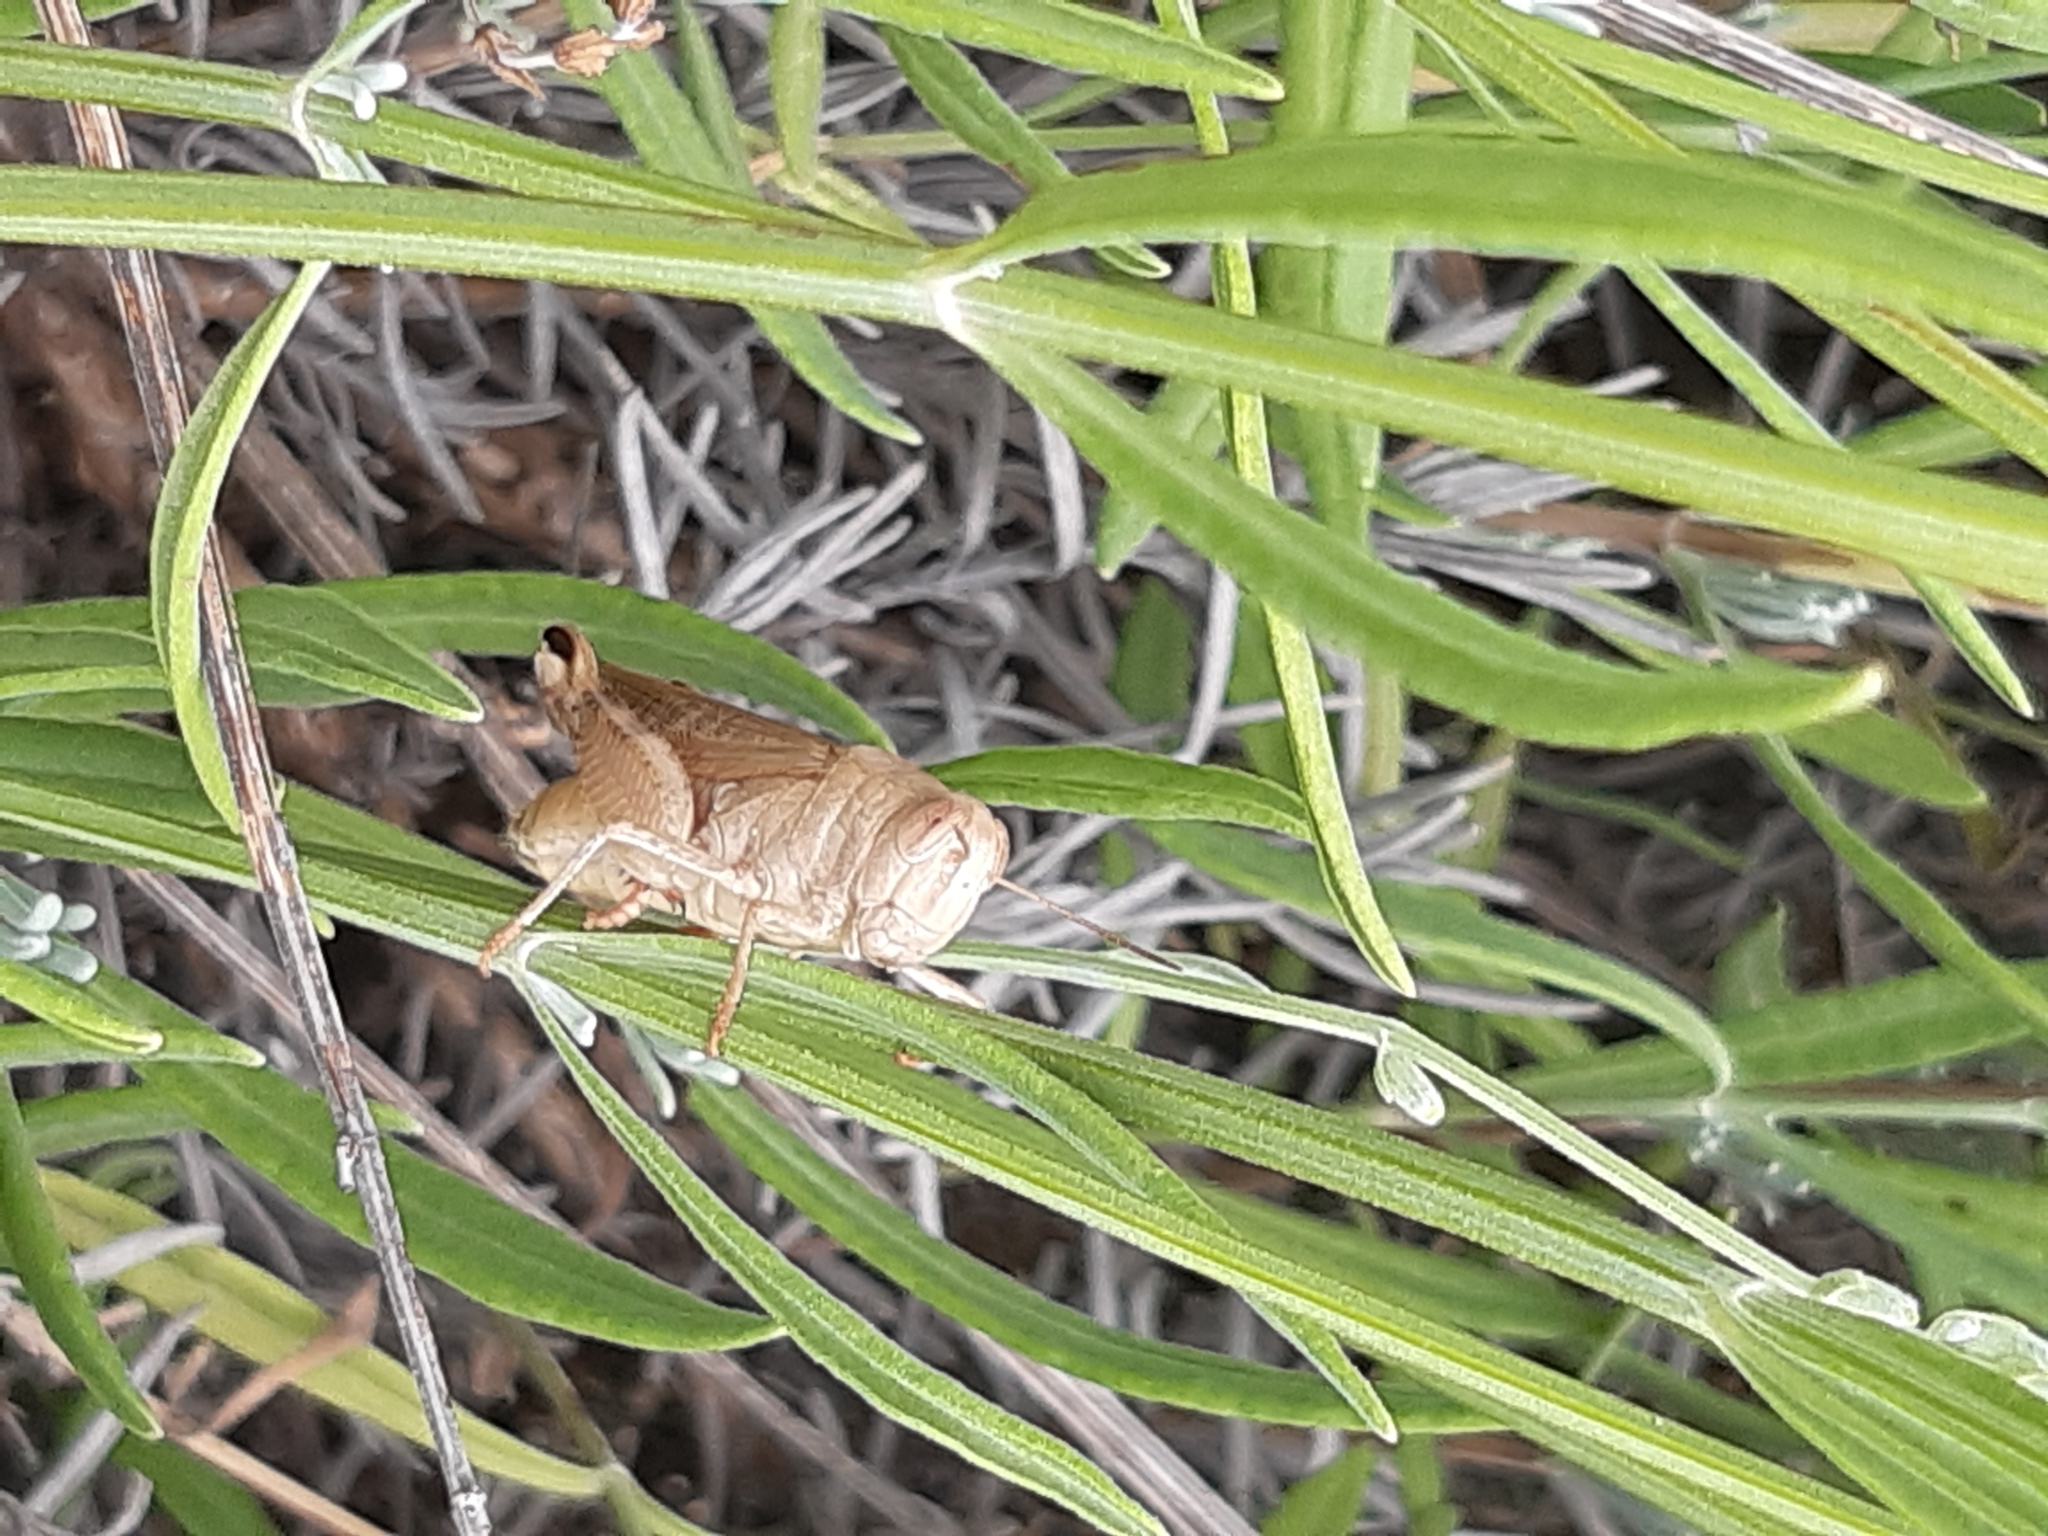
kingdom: Animalia
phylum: Arthropoda
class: Insecta
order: Orthoptera
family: Acrididae
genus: Calliptamus
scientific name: Calliptamus italicus
